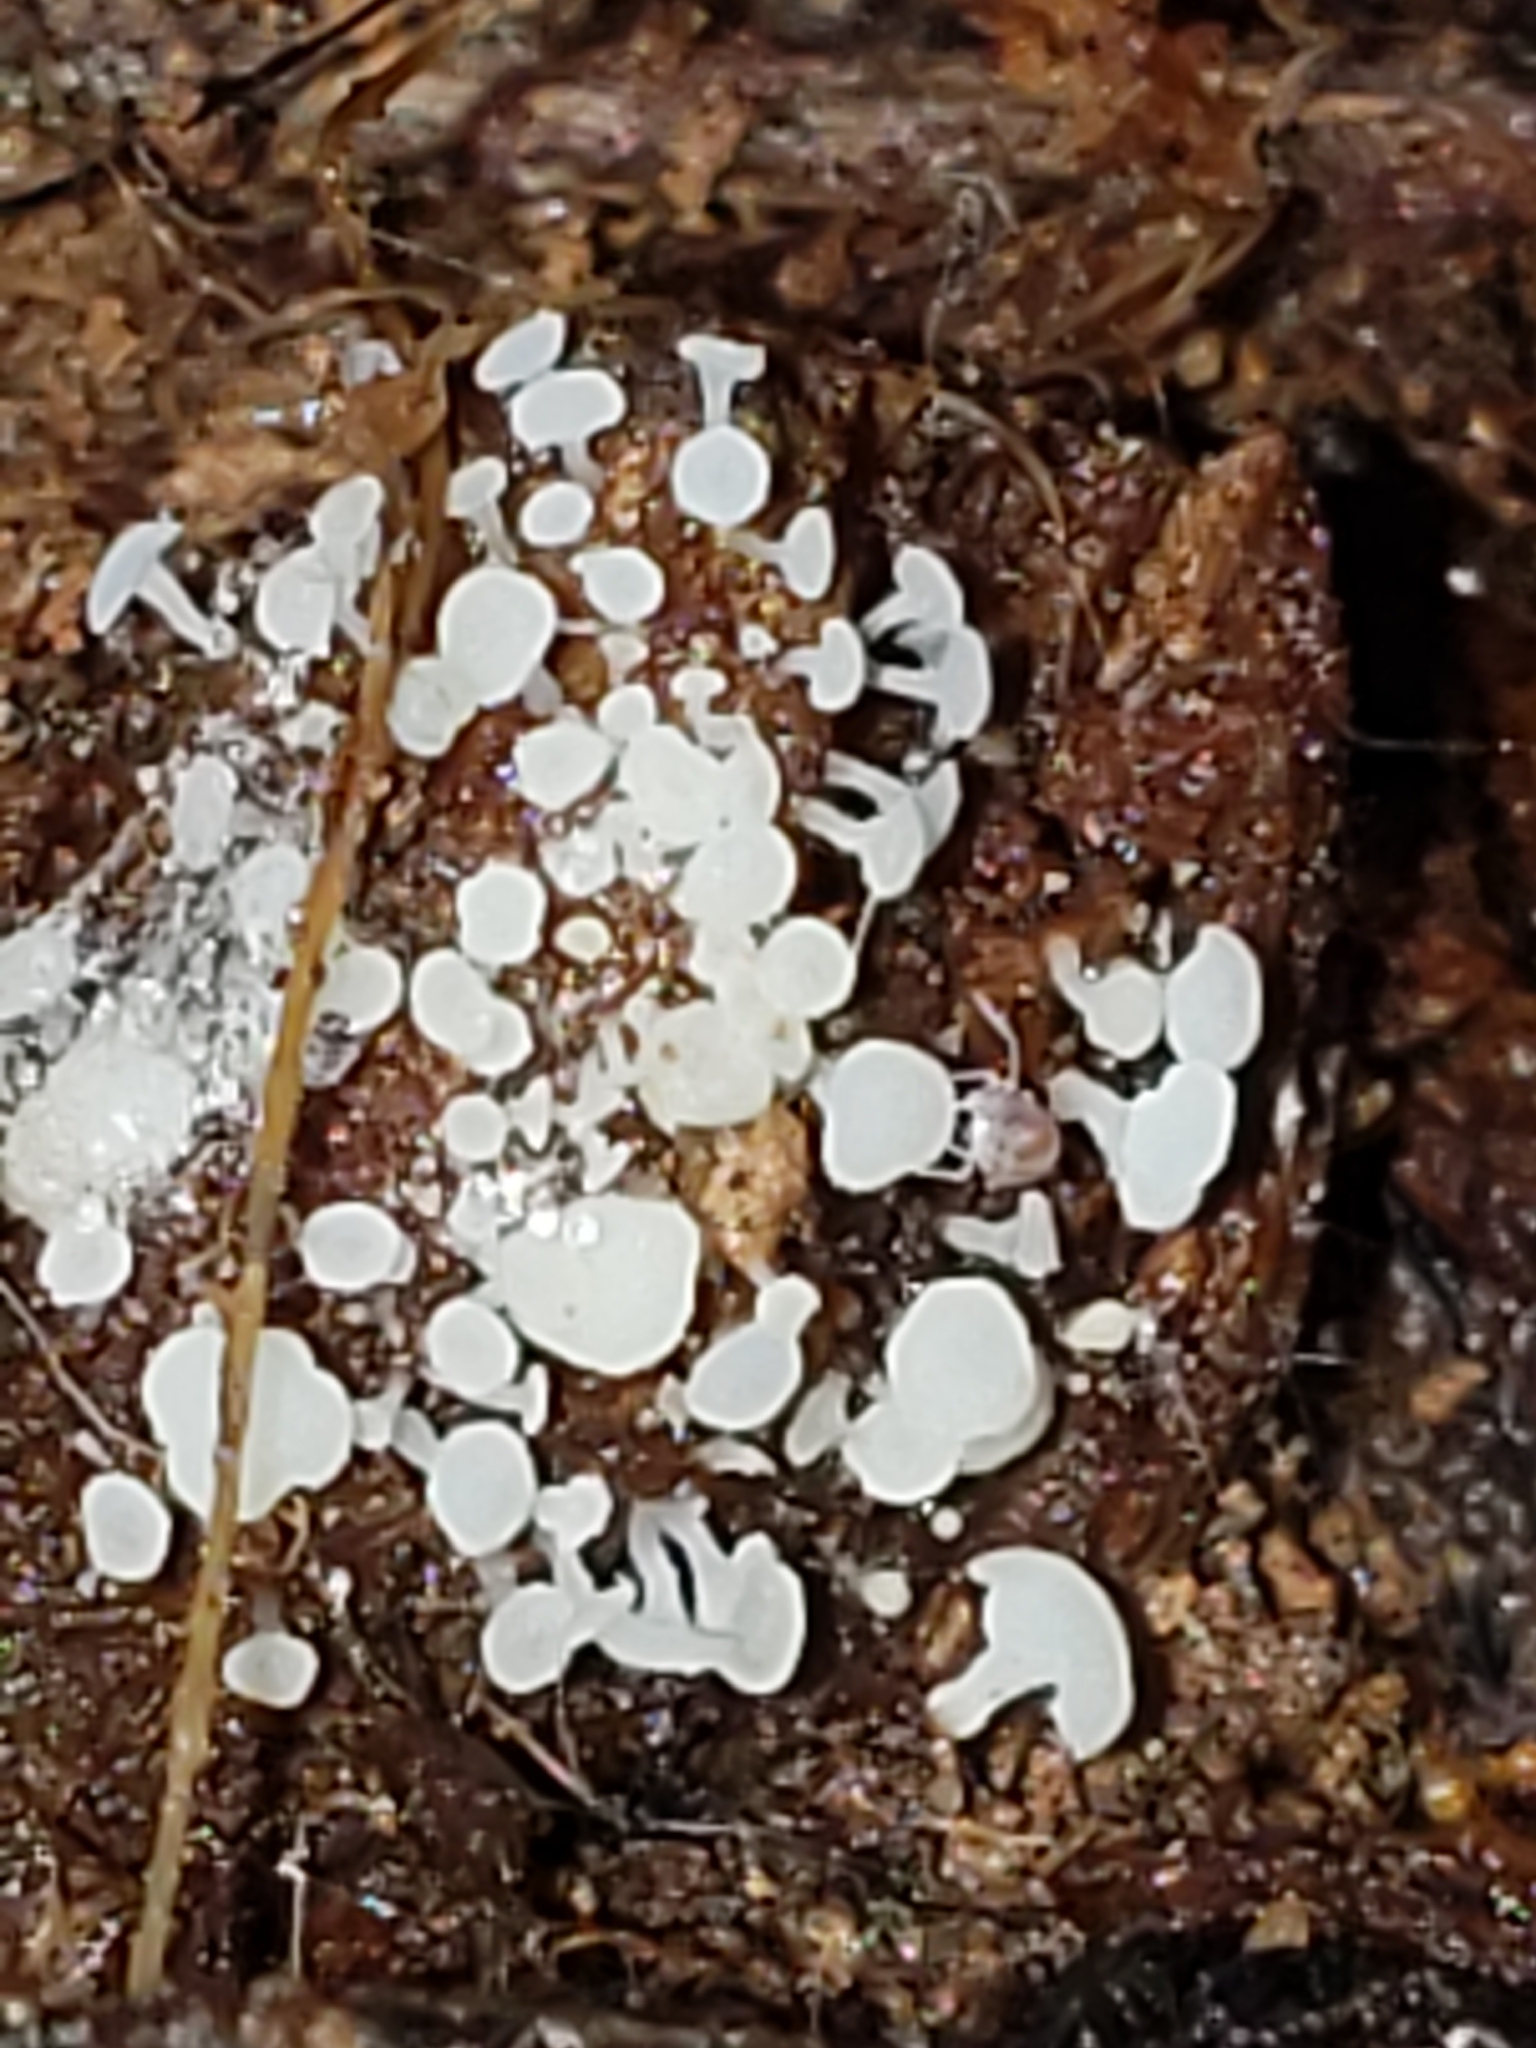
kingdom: Fungi
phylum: Ascomycota
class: Leotiomycetes
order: Helotiales
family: Tricladiaceae
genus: Cudoniella
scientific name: Cudoniella acicularis
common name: Oak pin
